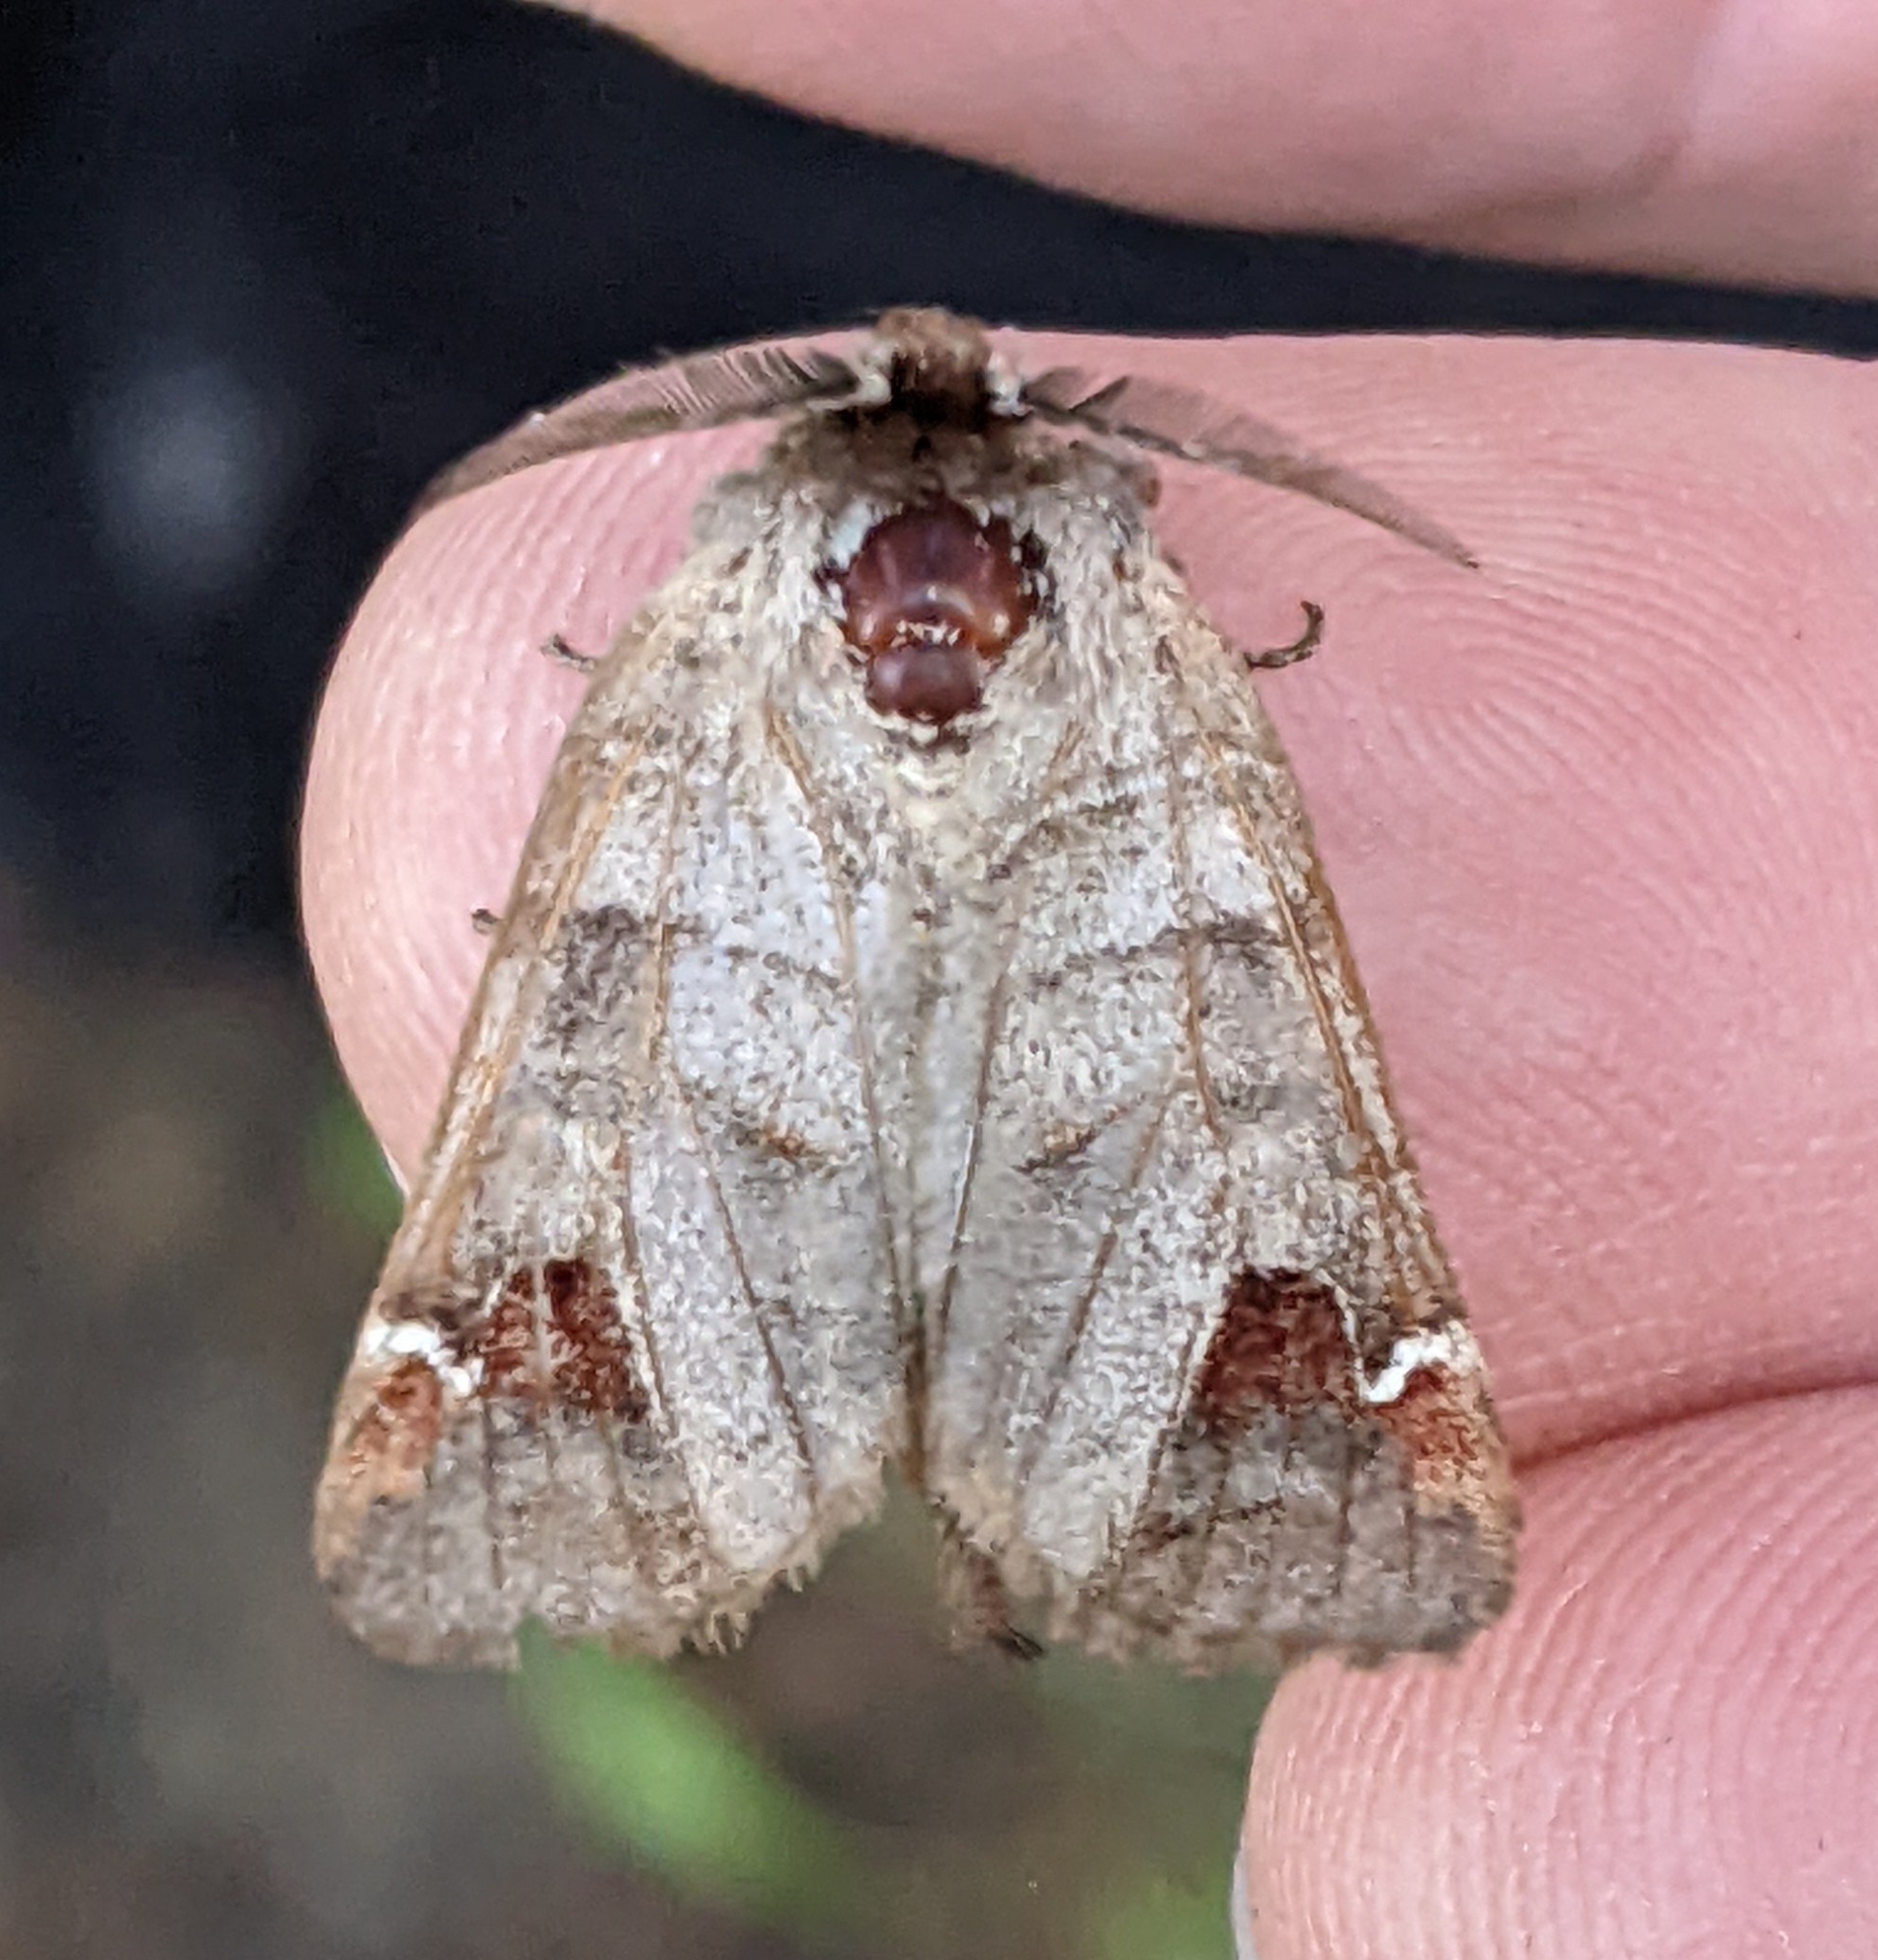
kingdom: Animalia
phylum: Arthropoda
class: Insecta
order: Lepidoptera
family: Notodontidae
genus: Clostera
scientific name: Clostera albosigma
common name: Sigmoid prominent
